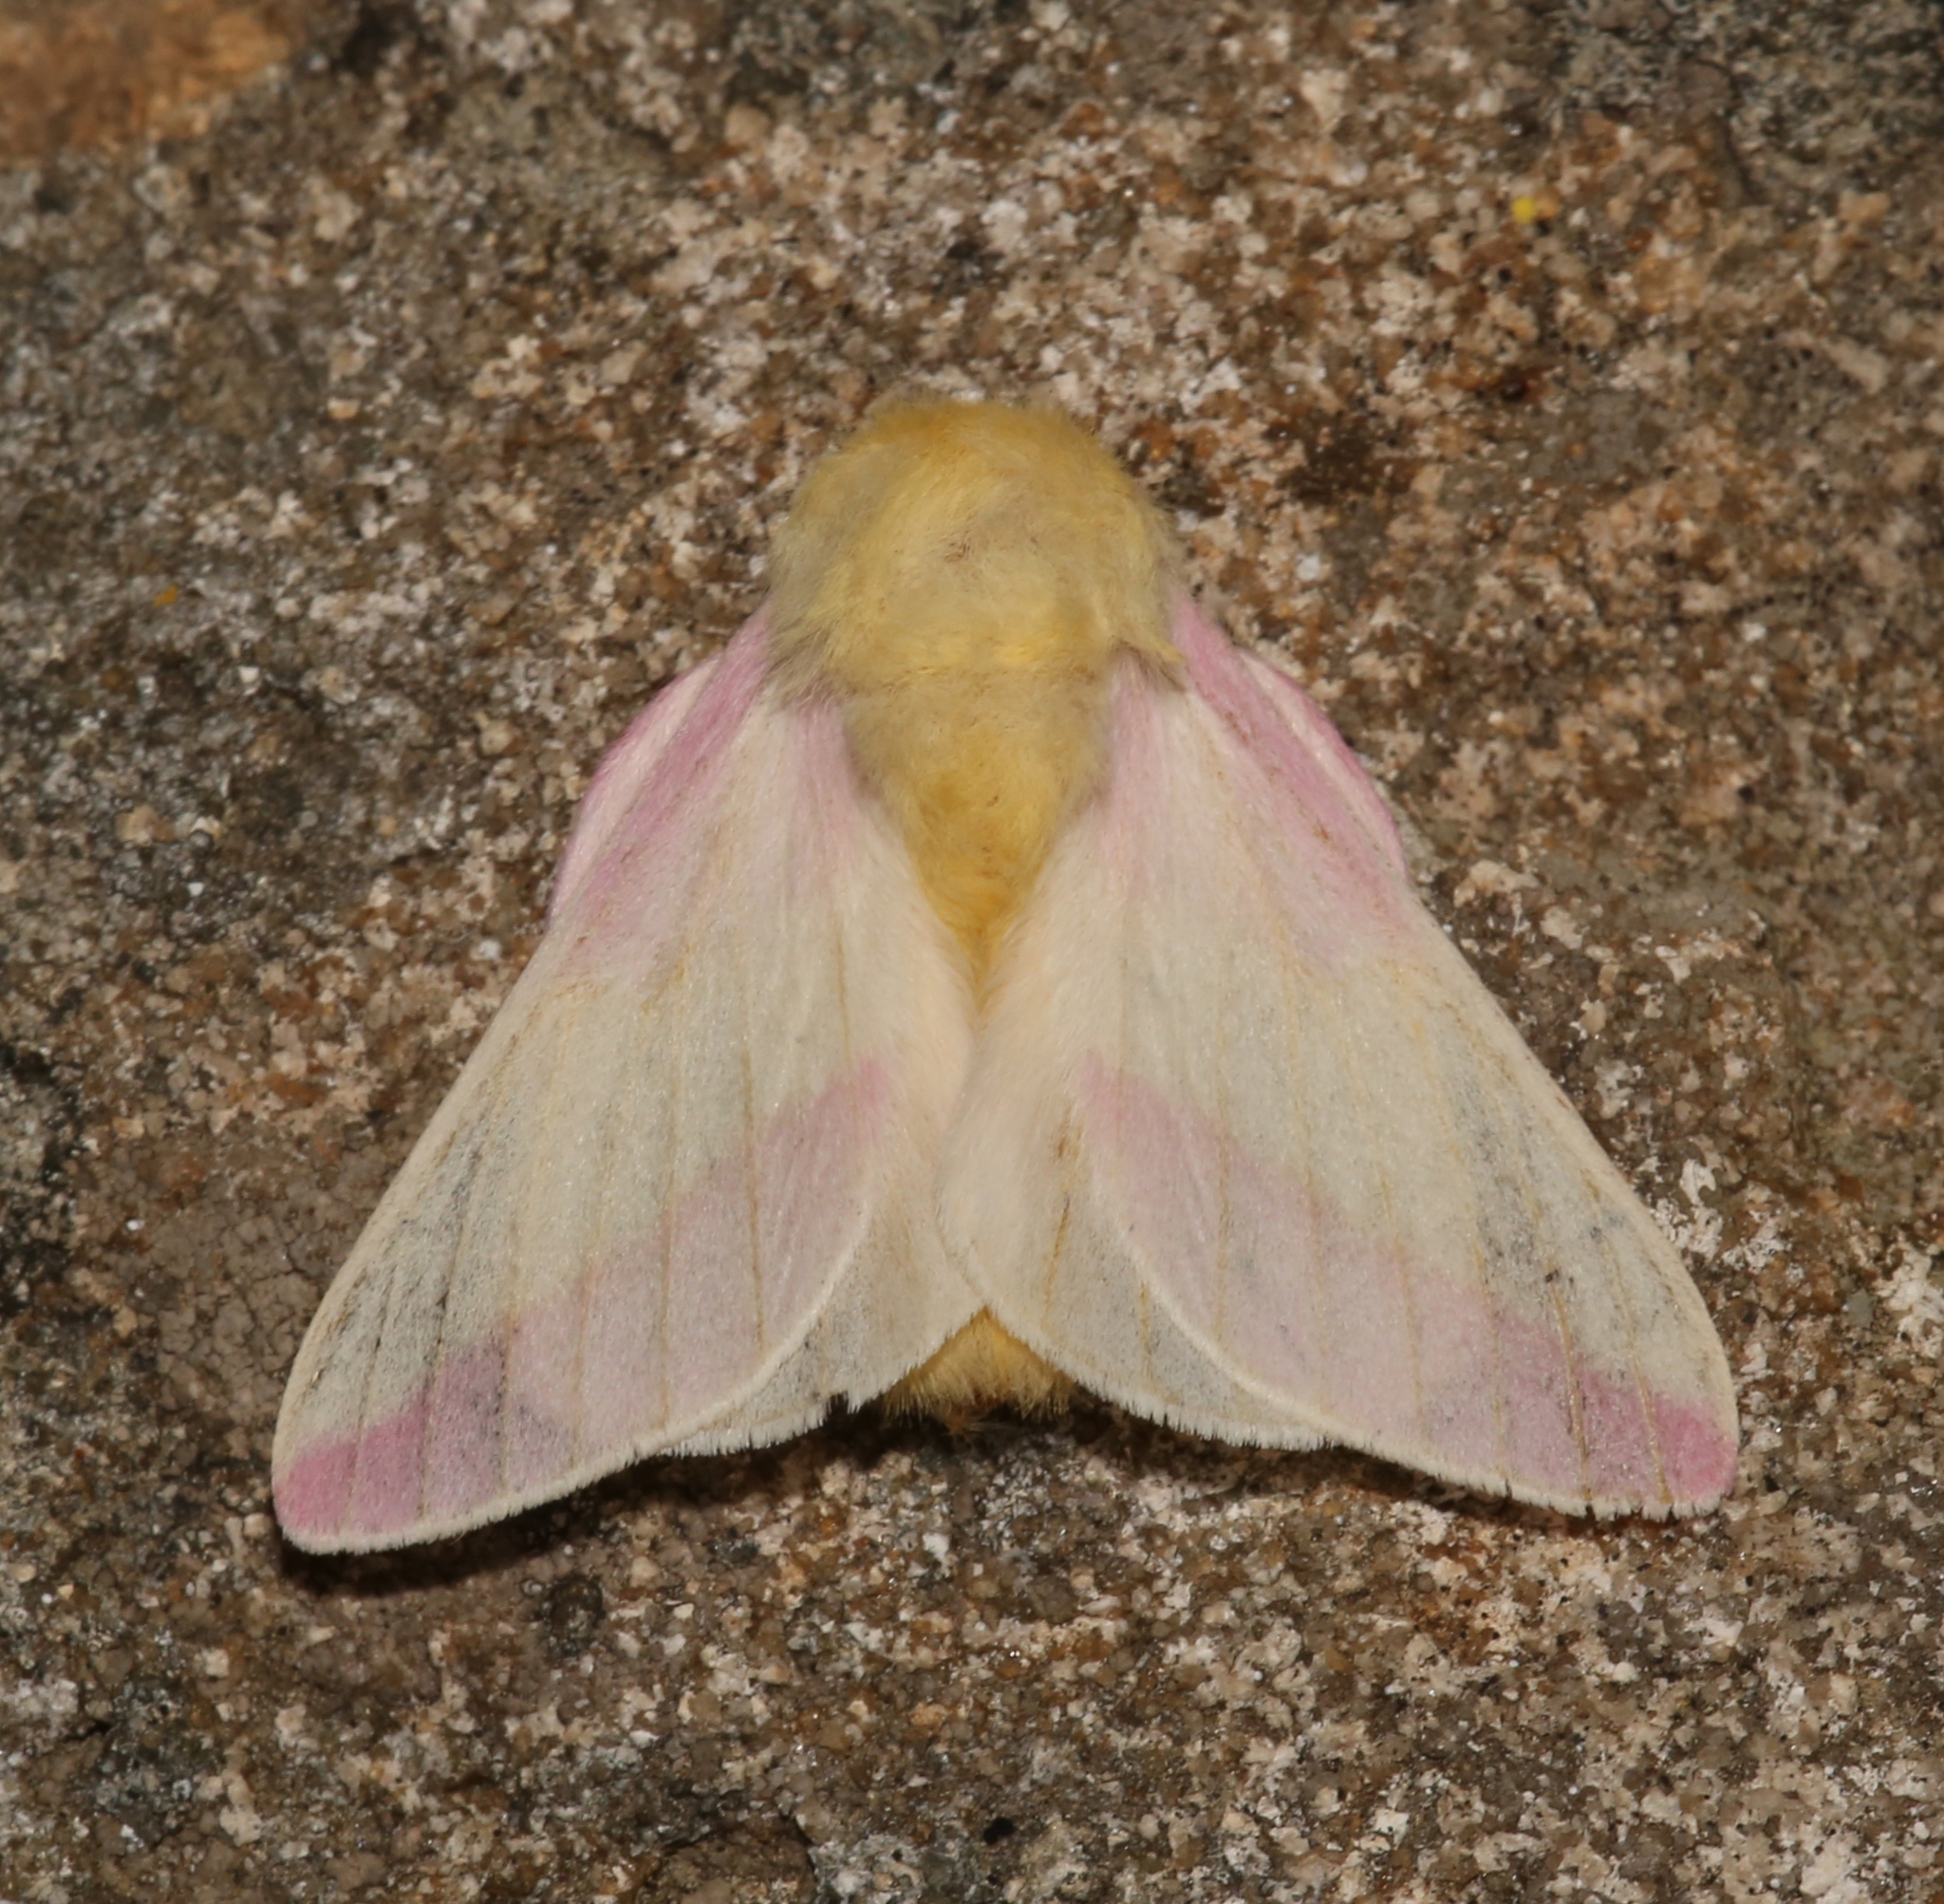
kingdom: Animalia
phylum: Arthropoda
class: Insecta
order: Lepidoptera
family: Saturniidae
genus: Dryocampa
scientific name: Dryocampa rubicunda
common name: Rosy maple moth
